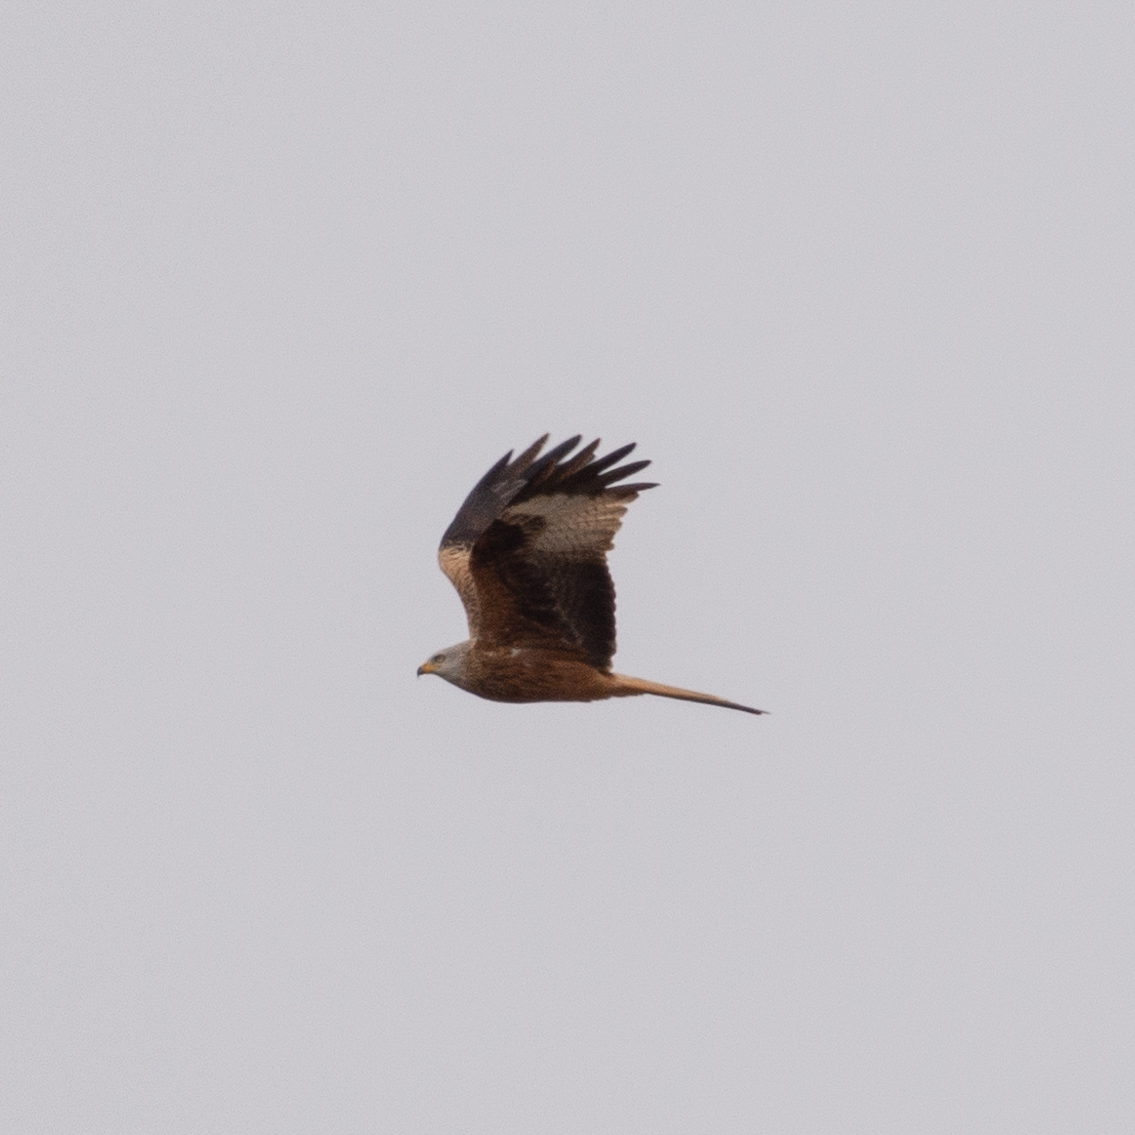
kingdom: Animalia
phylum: Chordata
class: Aves
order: Accipitriformes
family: Accipitridae
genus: Milvus
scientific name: Milvus milvus
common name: Red kite
